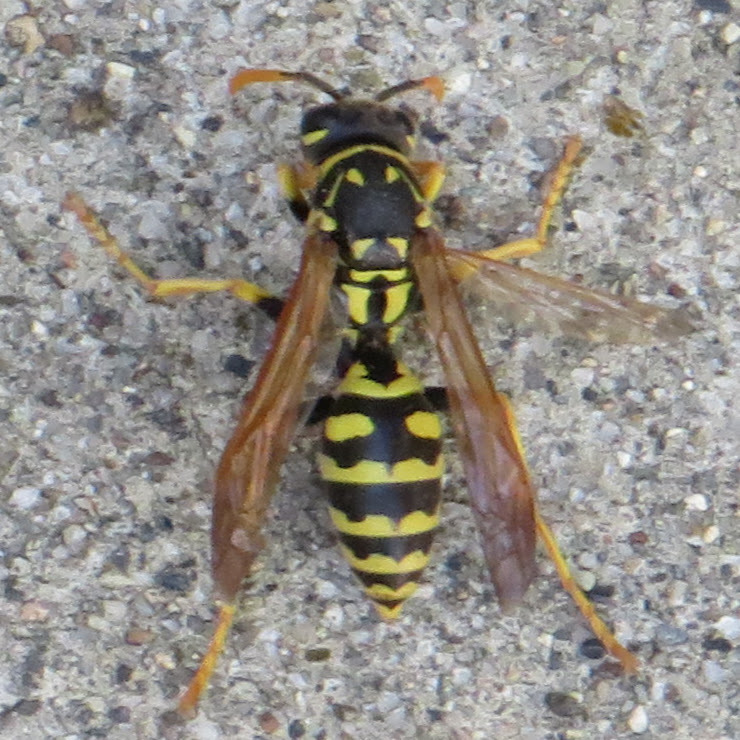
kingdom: Animalia
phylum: Arthropoda
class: Insecta
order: Hymenoptera
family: Eumenidae
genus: Polistes
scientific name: Polistes dominula
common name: Paper wasp
